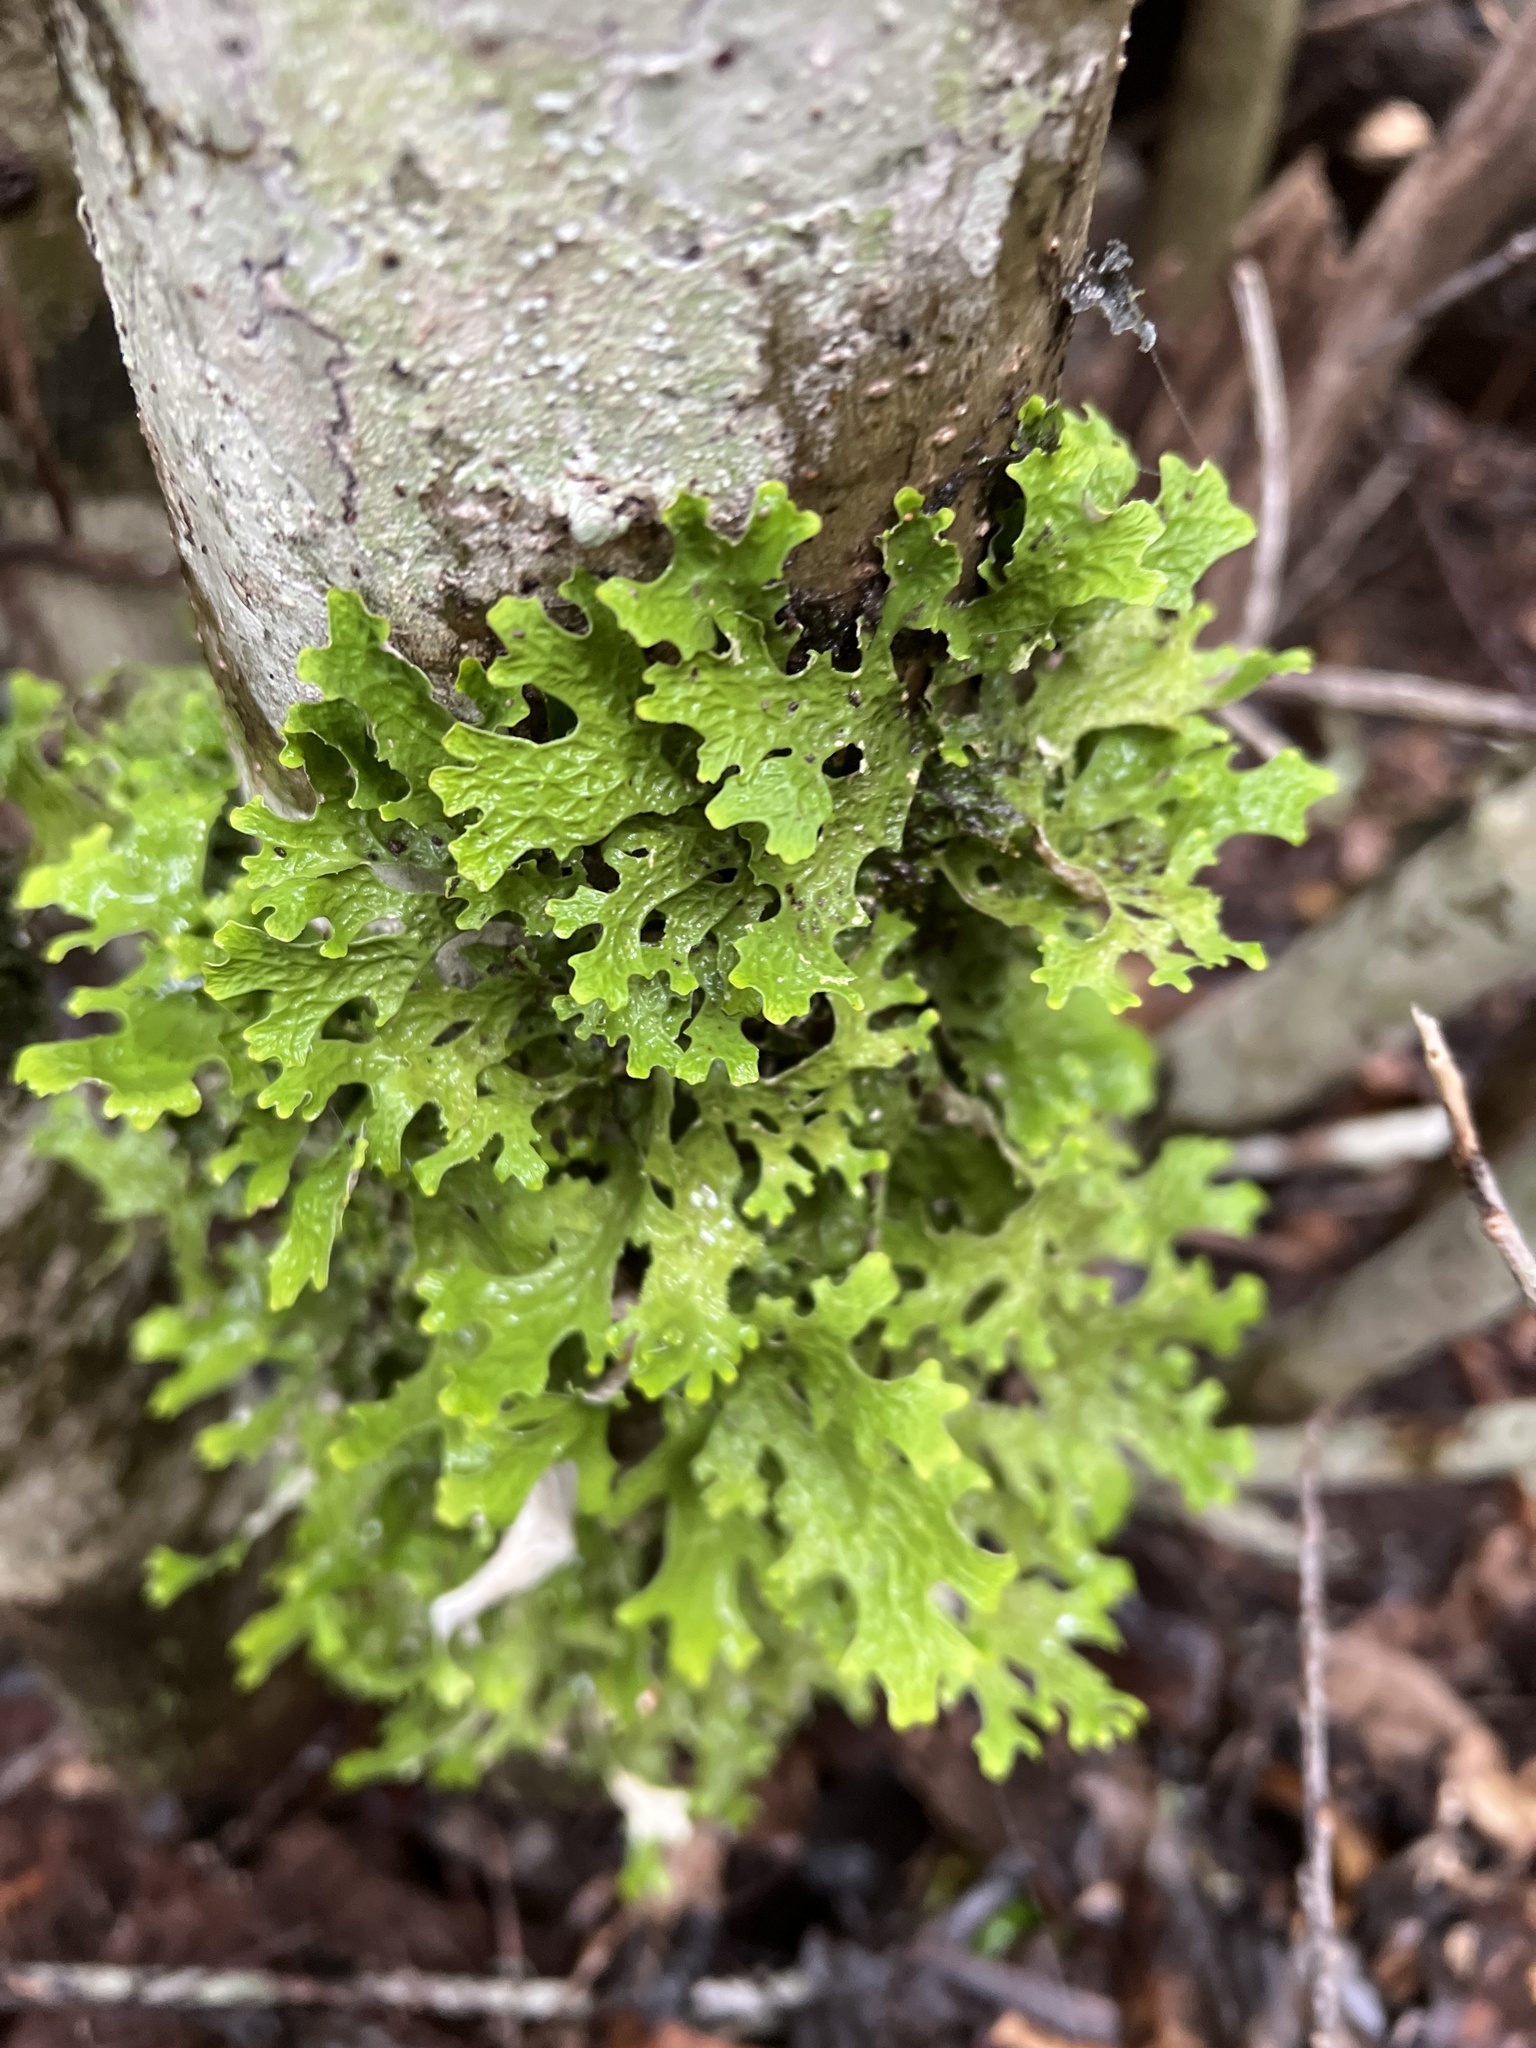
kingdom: Fungi
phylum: Ascomycota
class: Lecanoromycetes
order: Peltigerales
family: Lobariaceae
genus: Lobaria
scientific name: Lobaria pulmonaria
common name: Lungwort
